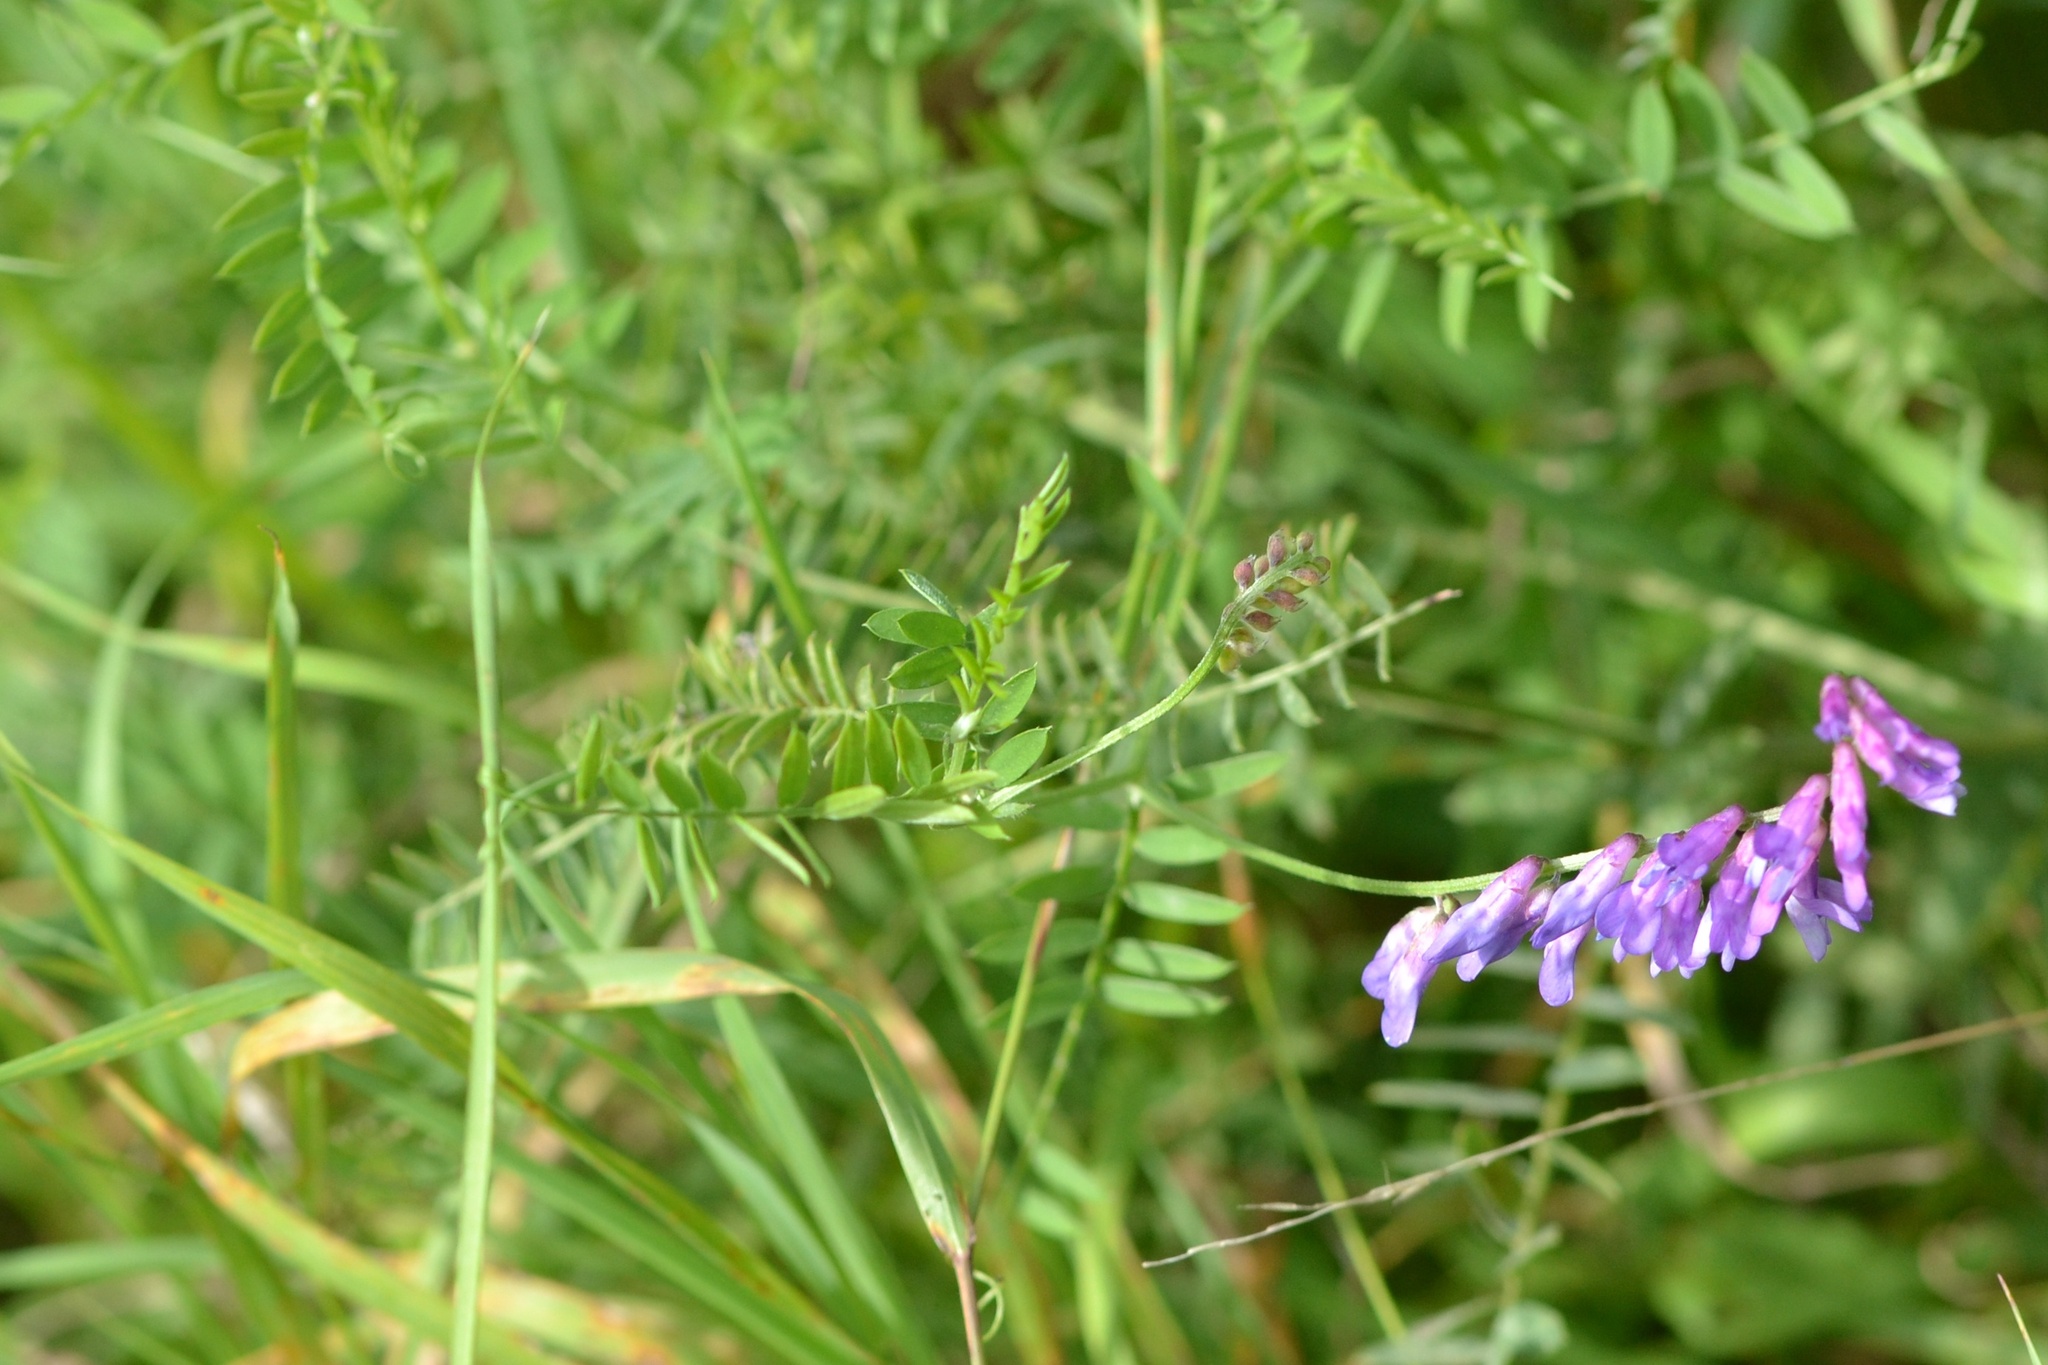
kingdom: Plantae
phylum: Tracheophyta
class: Magnoliopsida
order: Fabales
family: Fabaceae
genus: Vicia
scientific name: Vicia cracca
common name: Bird vetch
